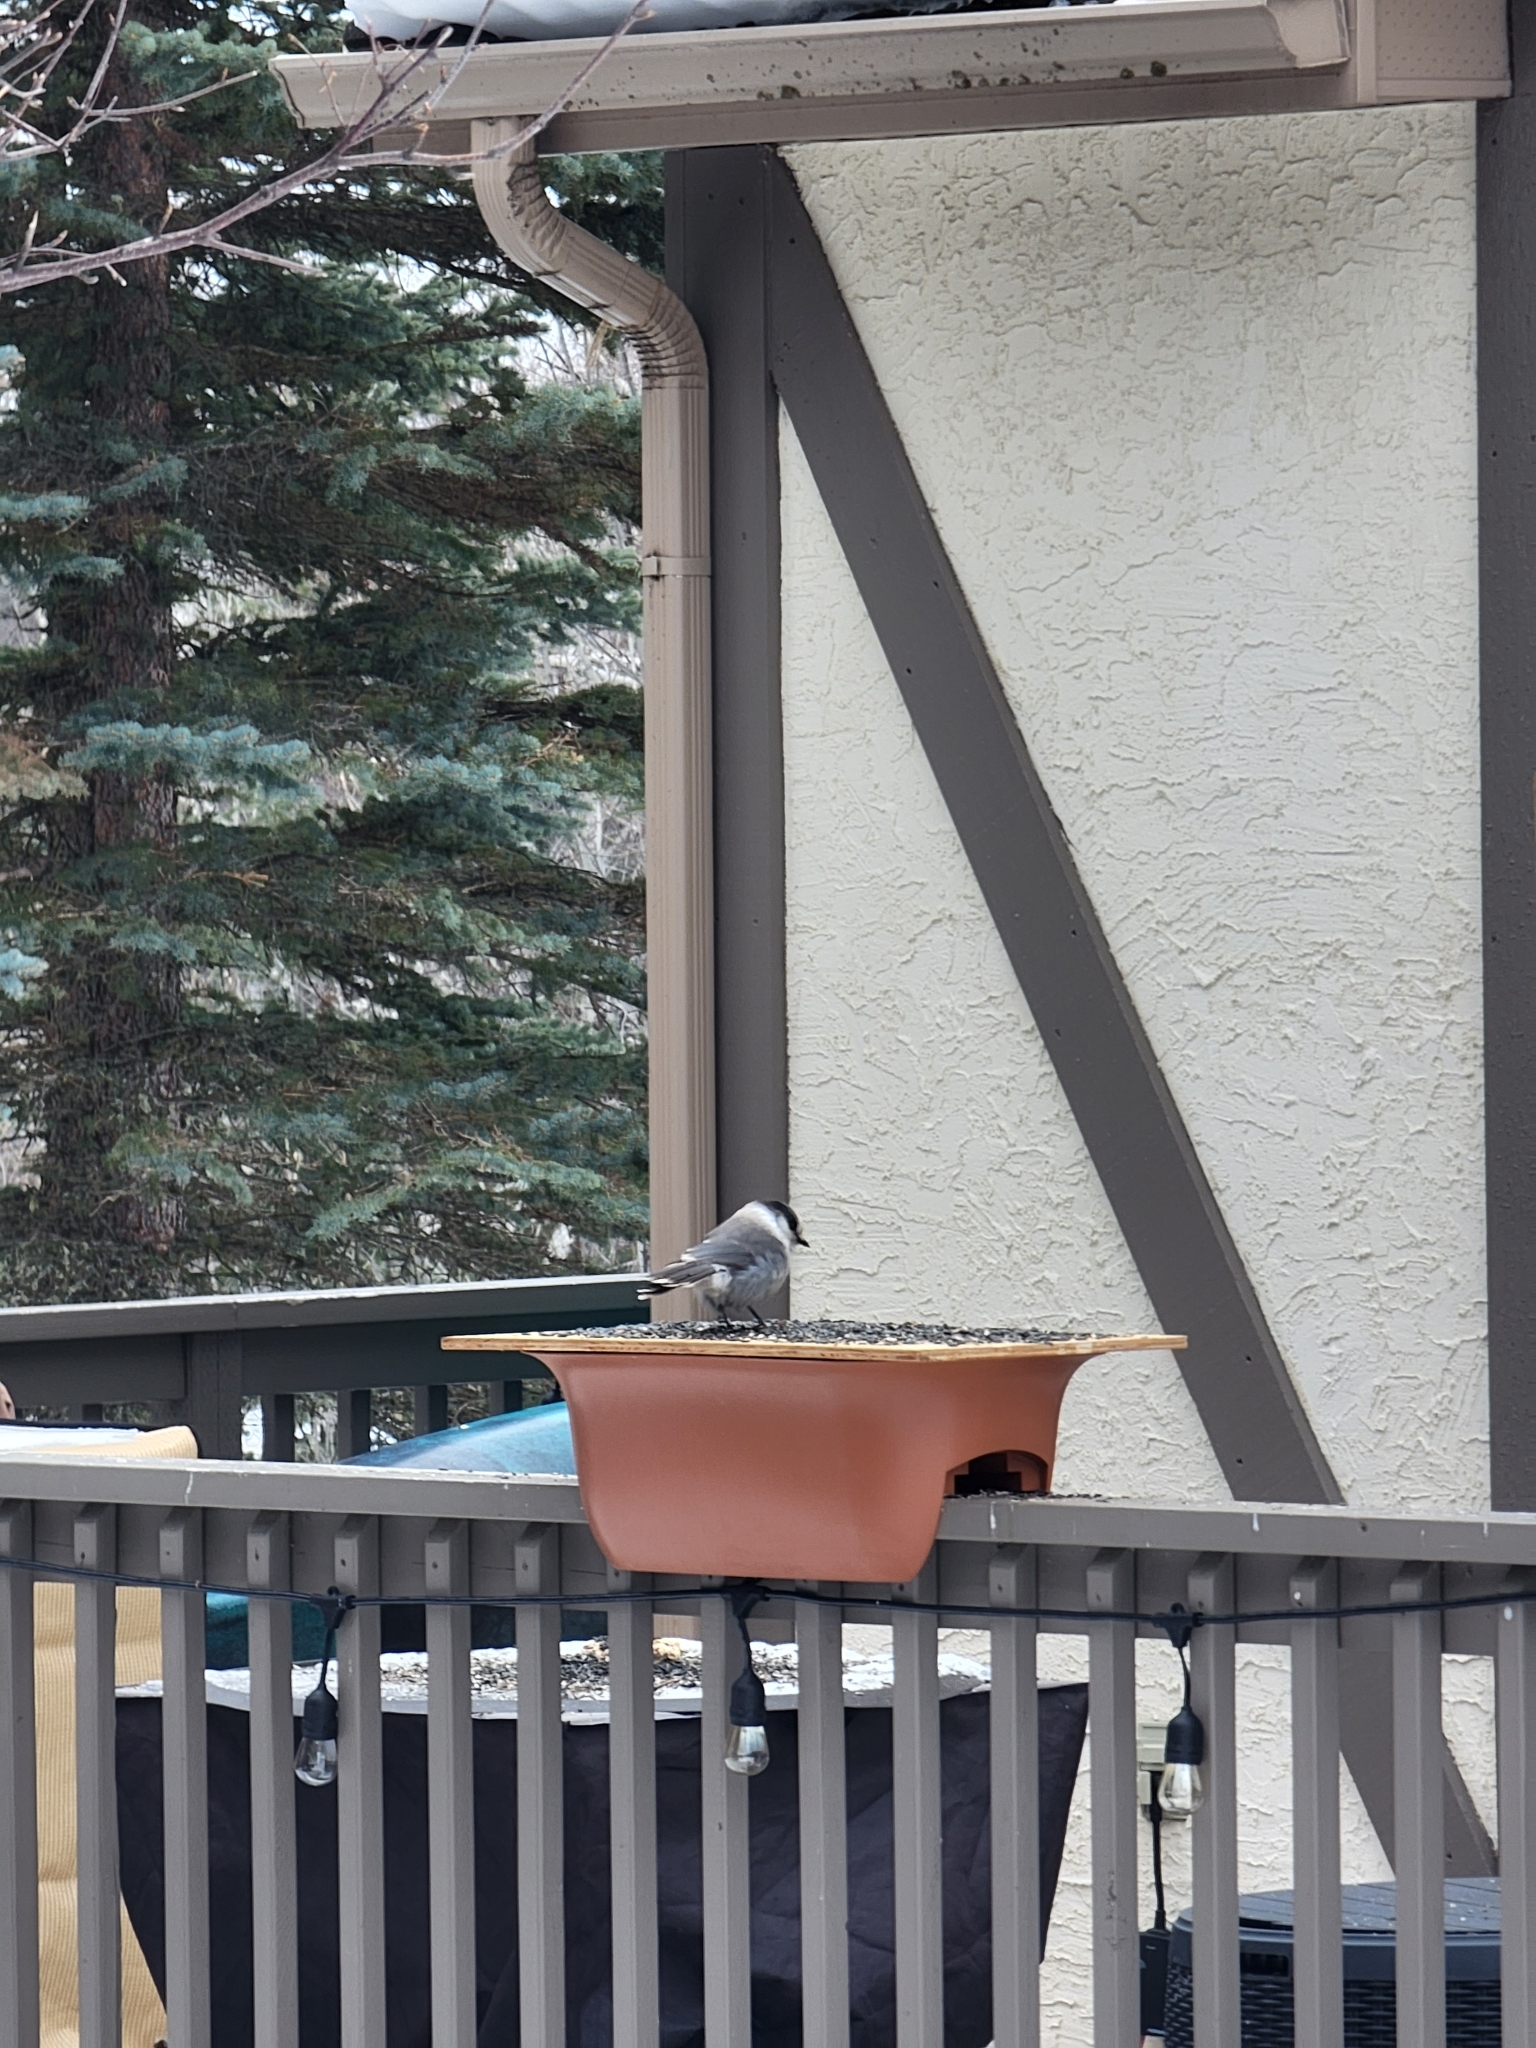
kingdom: Animalia
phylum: Chordata
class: Aves
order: Passeriformes
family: Corvidae
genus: Perisoreus
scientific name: Perisoreus canadensis
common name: Gray jay
